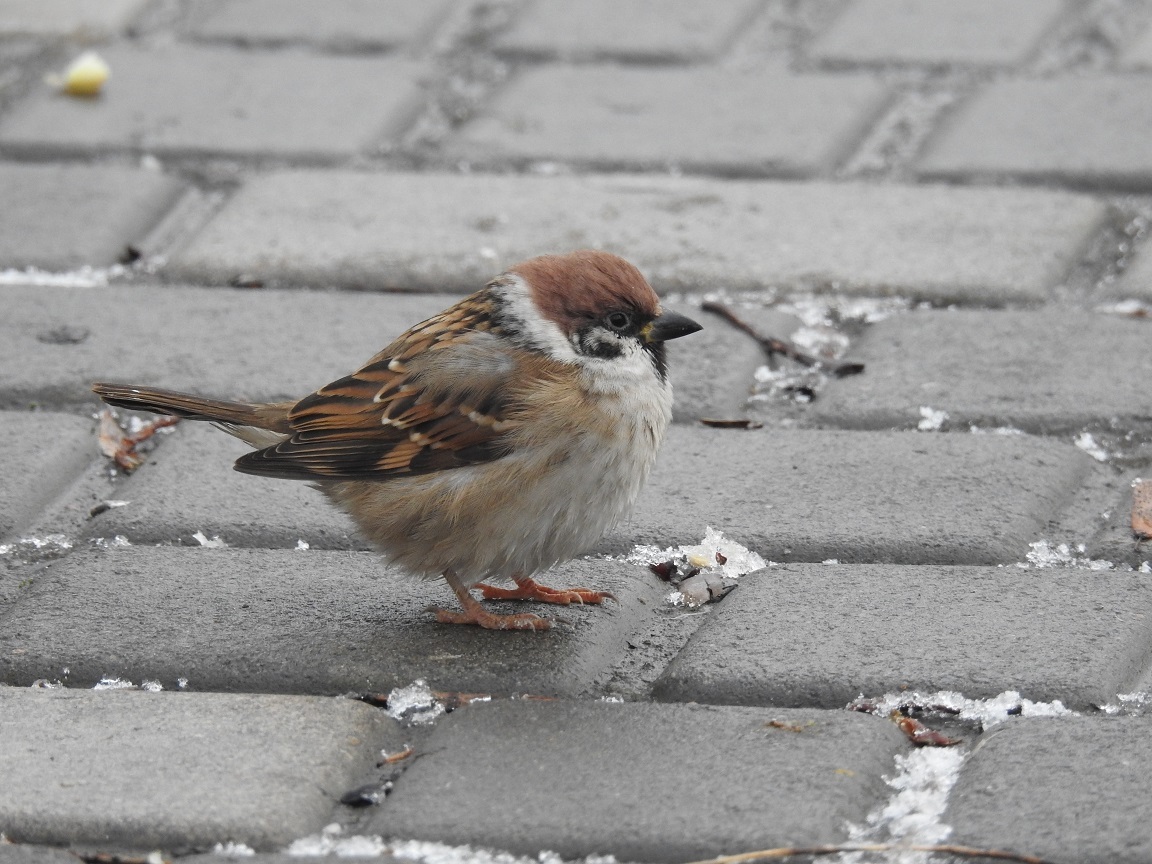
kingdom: Animalia
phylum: Chordata
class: Aves
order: Passeriformes
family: Passeridae
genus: Passer
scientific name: Passer montanus
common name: Eurasian tree sparrow
